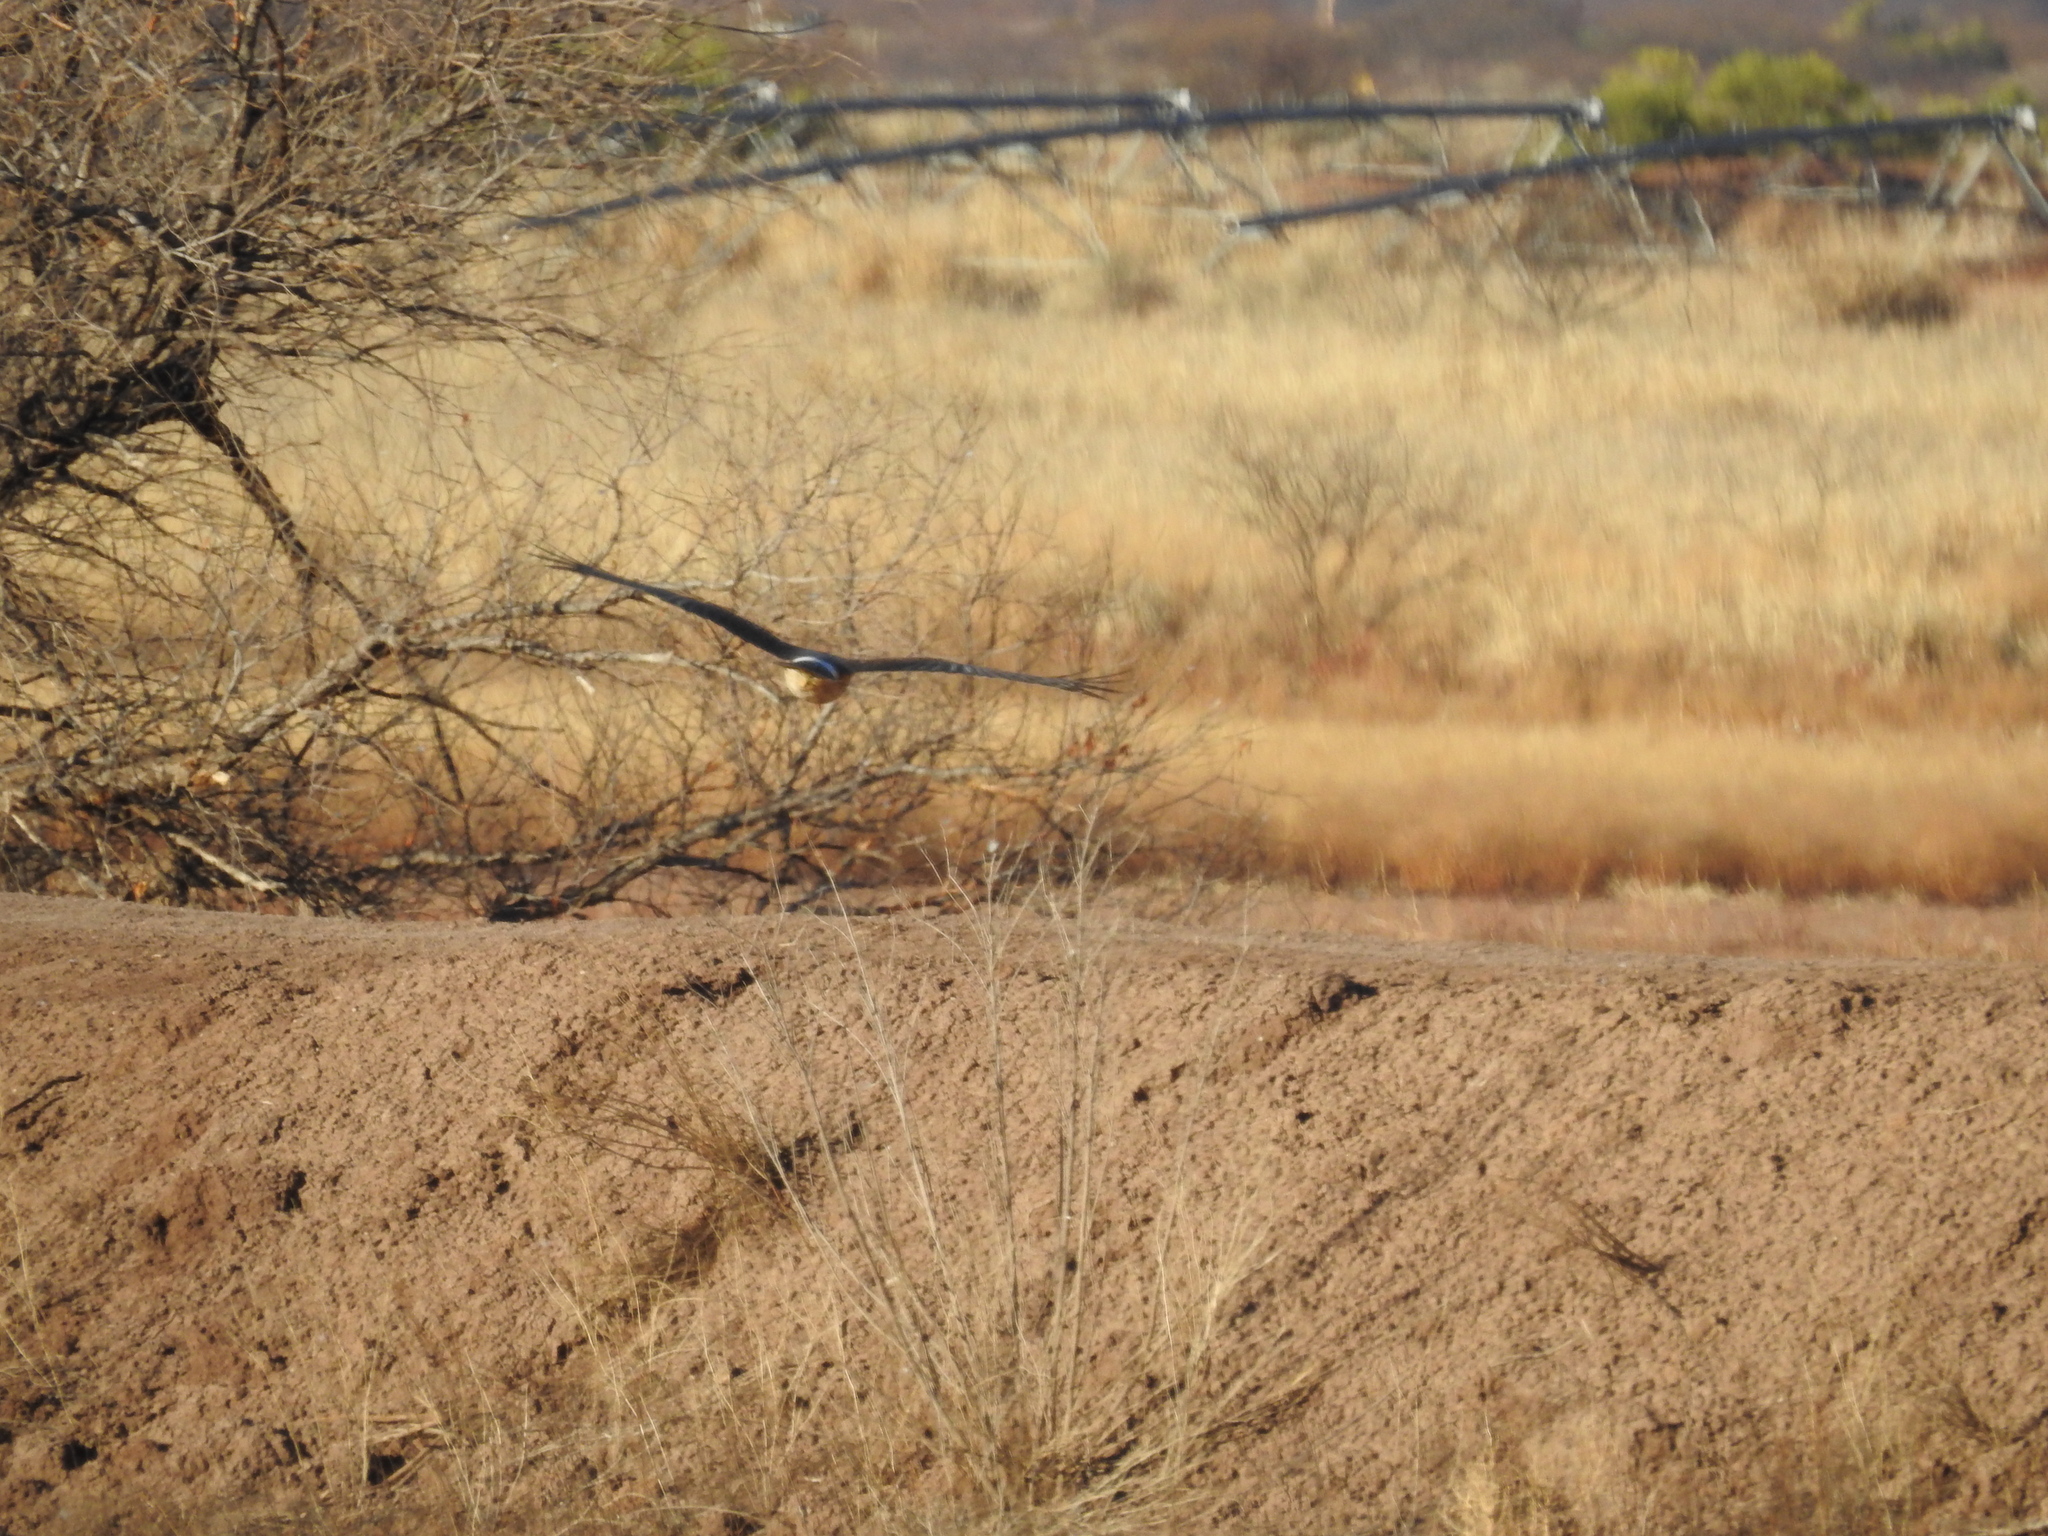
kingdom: Animalia
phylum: Chordata
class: Aves
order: Accipitriformes
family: Accipitridae
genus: Circus
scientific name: Circus cyaneus
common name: Hen harrier
